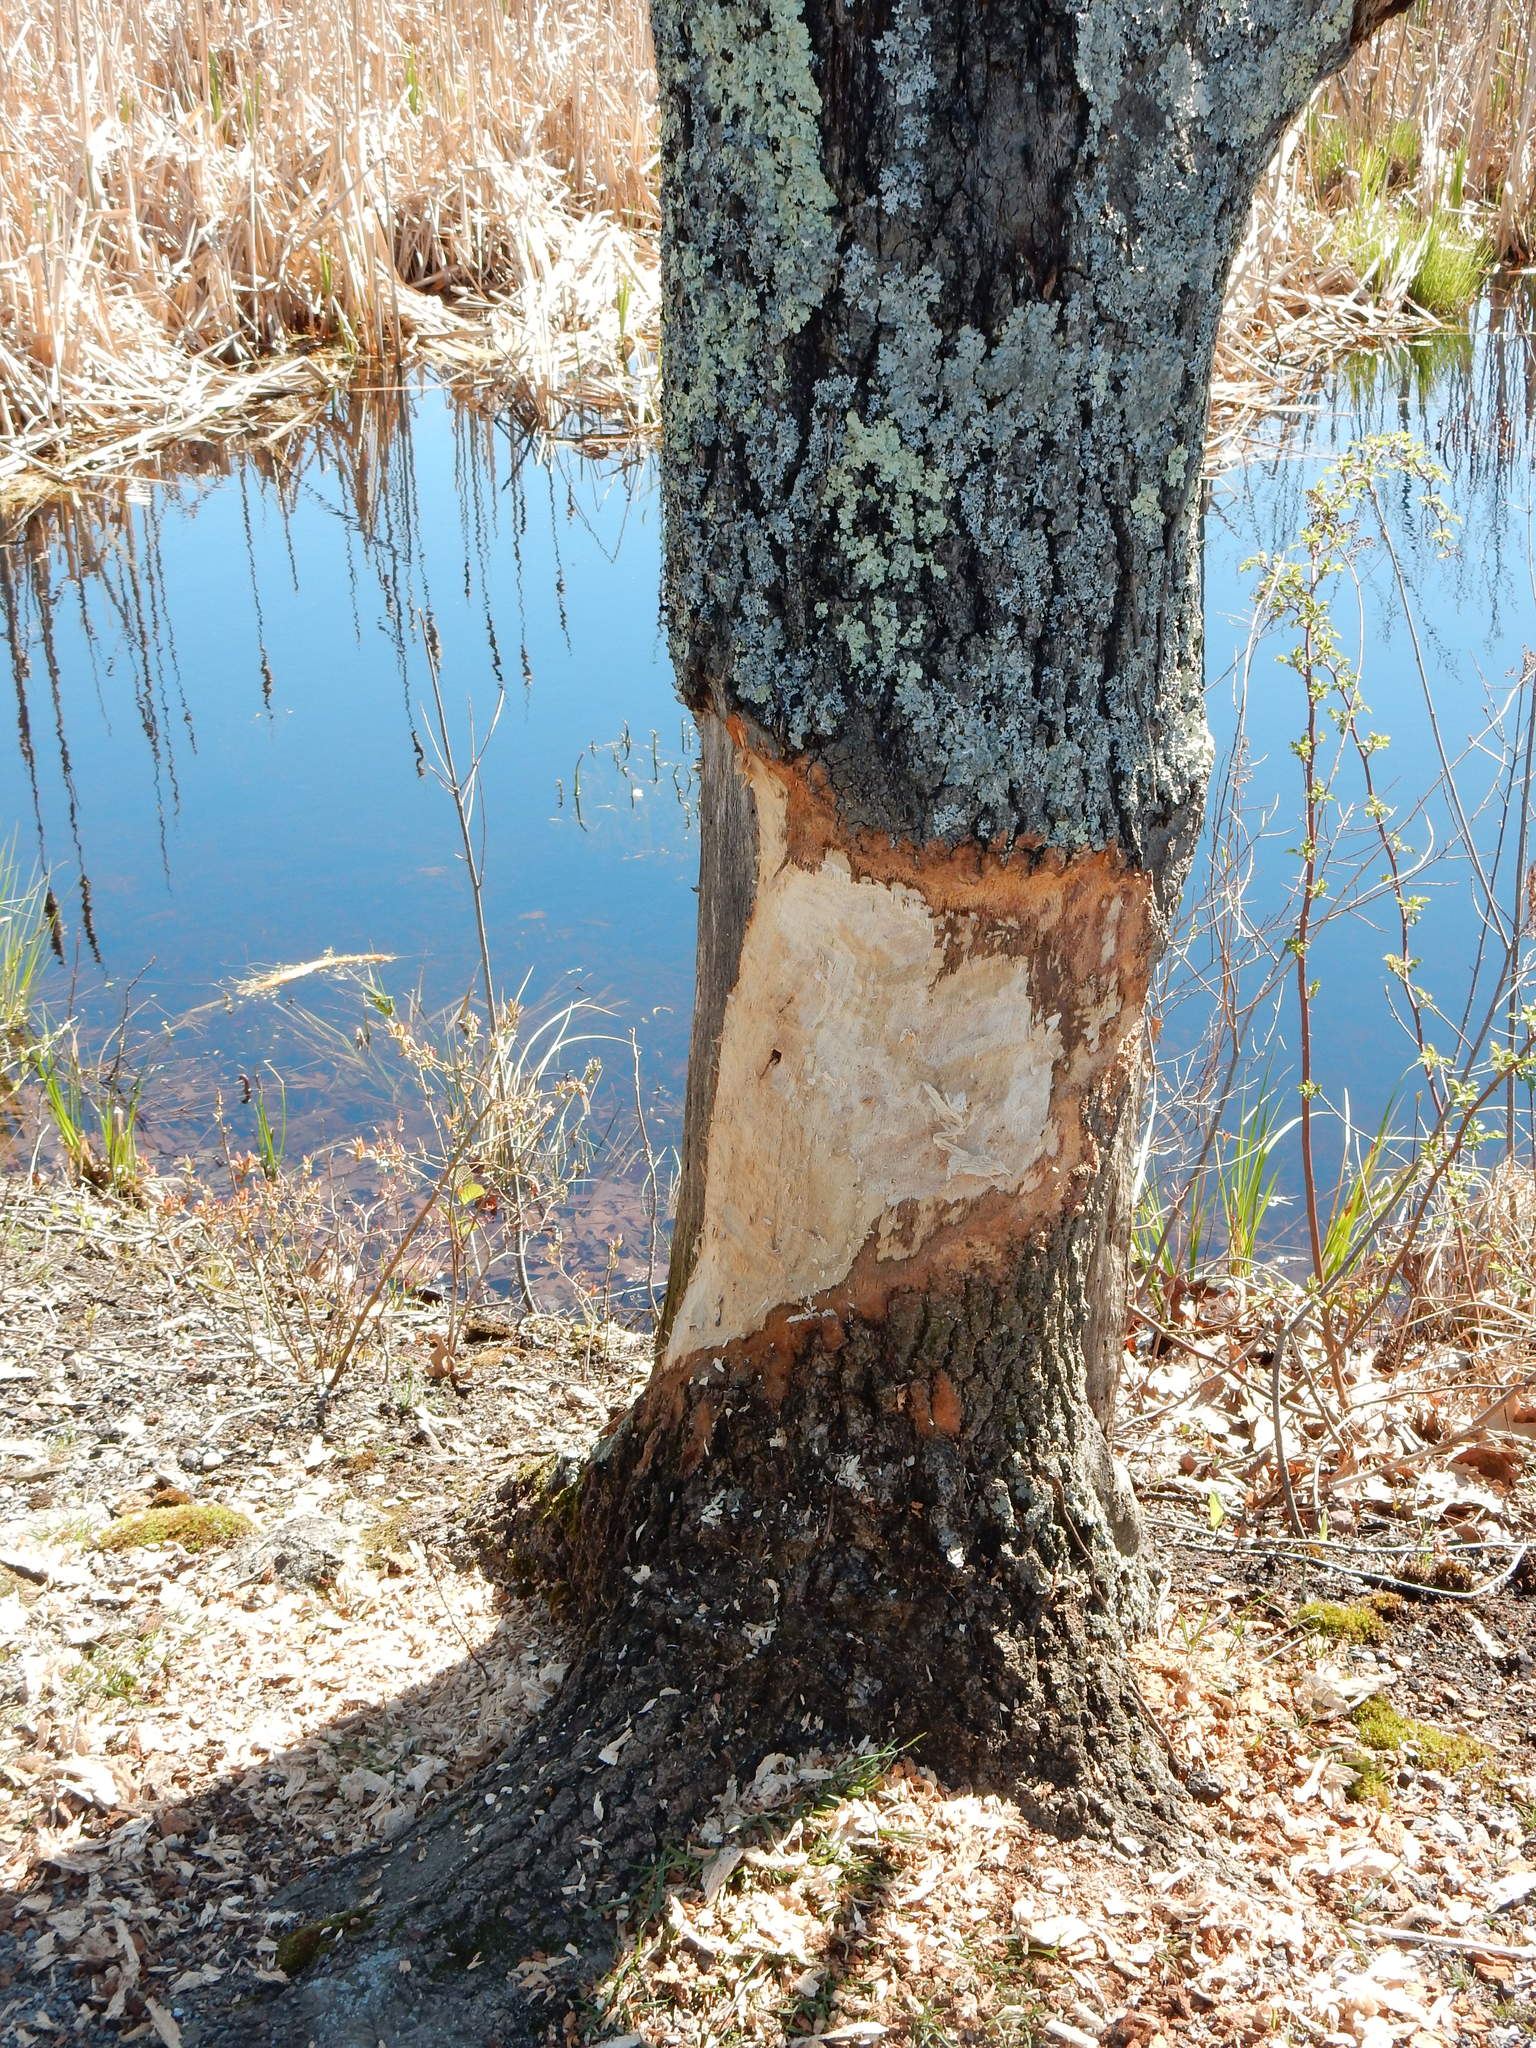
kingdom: Animalia
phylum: Chordata
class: Mammalia
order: Rodentia
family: Castoridae
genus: Castor
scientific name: Castor canadensis
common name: American beaver
